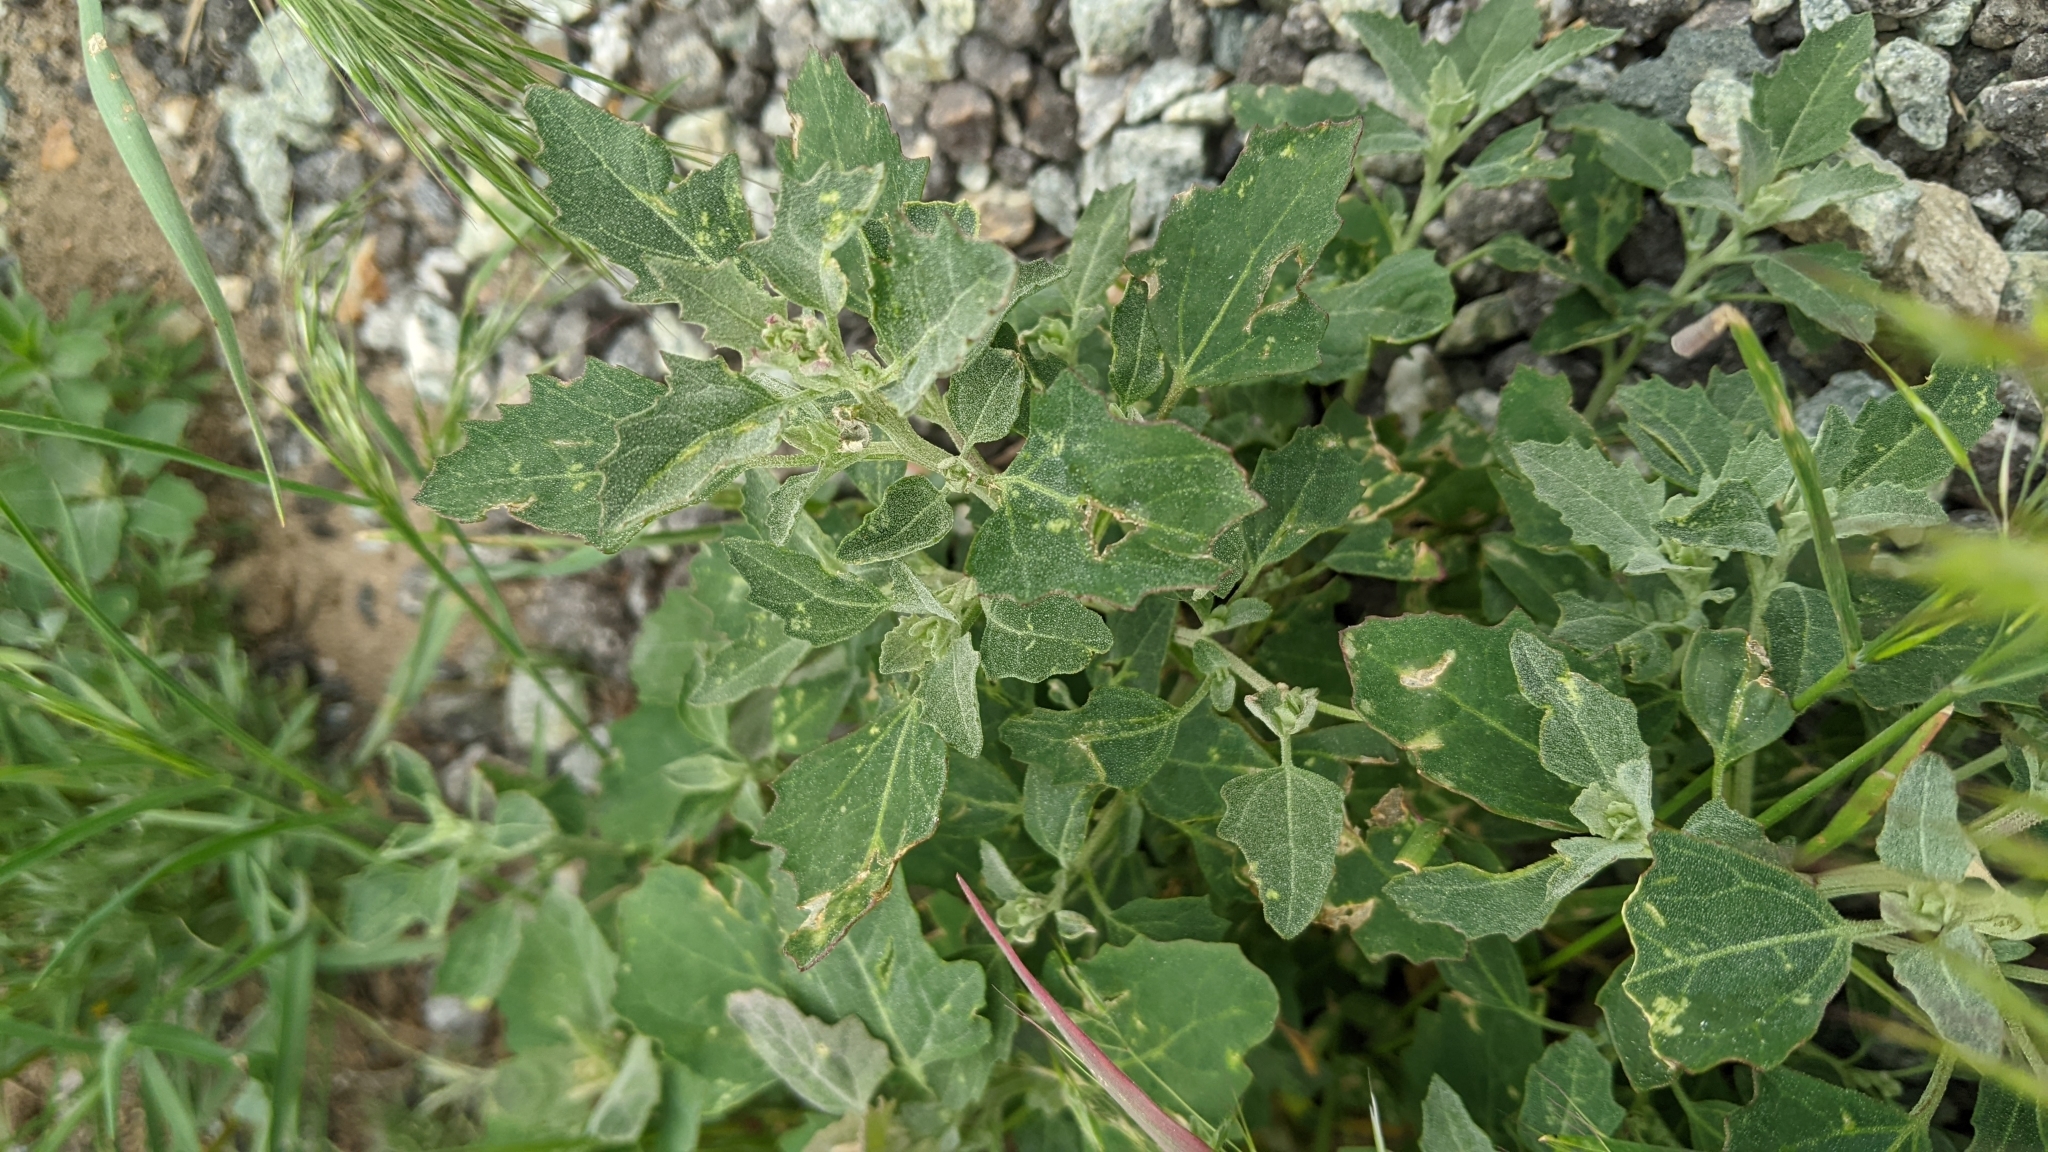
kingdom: Plantae
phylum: Tracheophyta
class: Magnoliopsida
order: Caryophyllales
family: Amaranthaceae
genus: Chenopodium
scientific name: Chenopodium album
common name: Fat-hen
